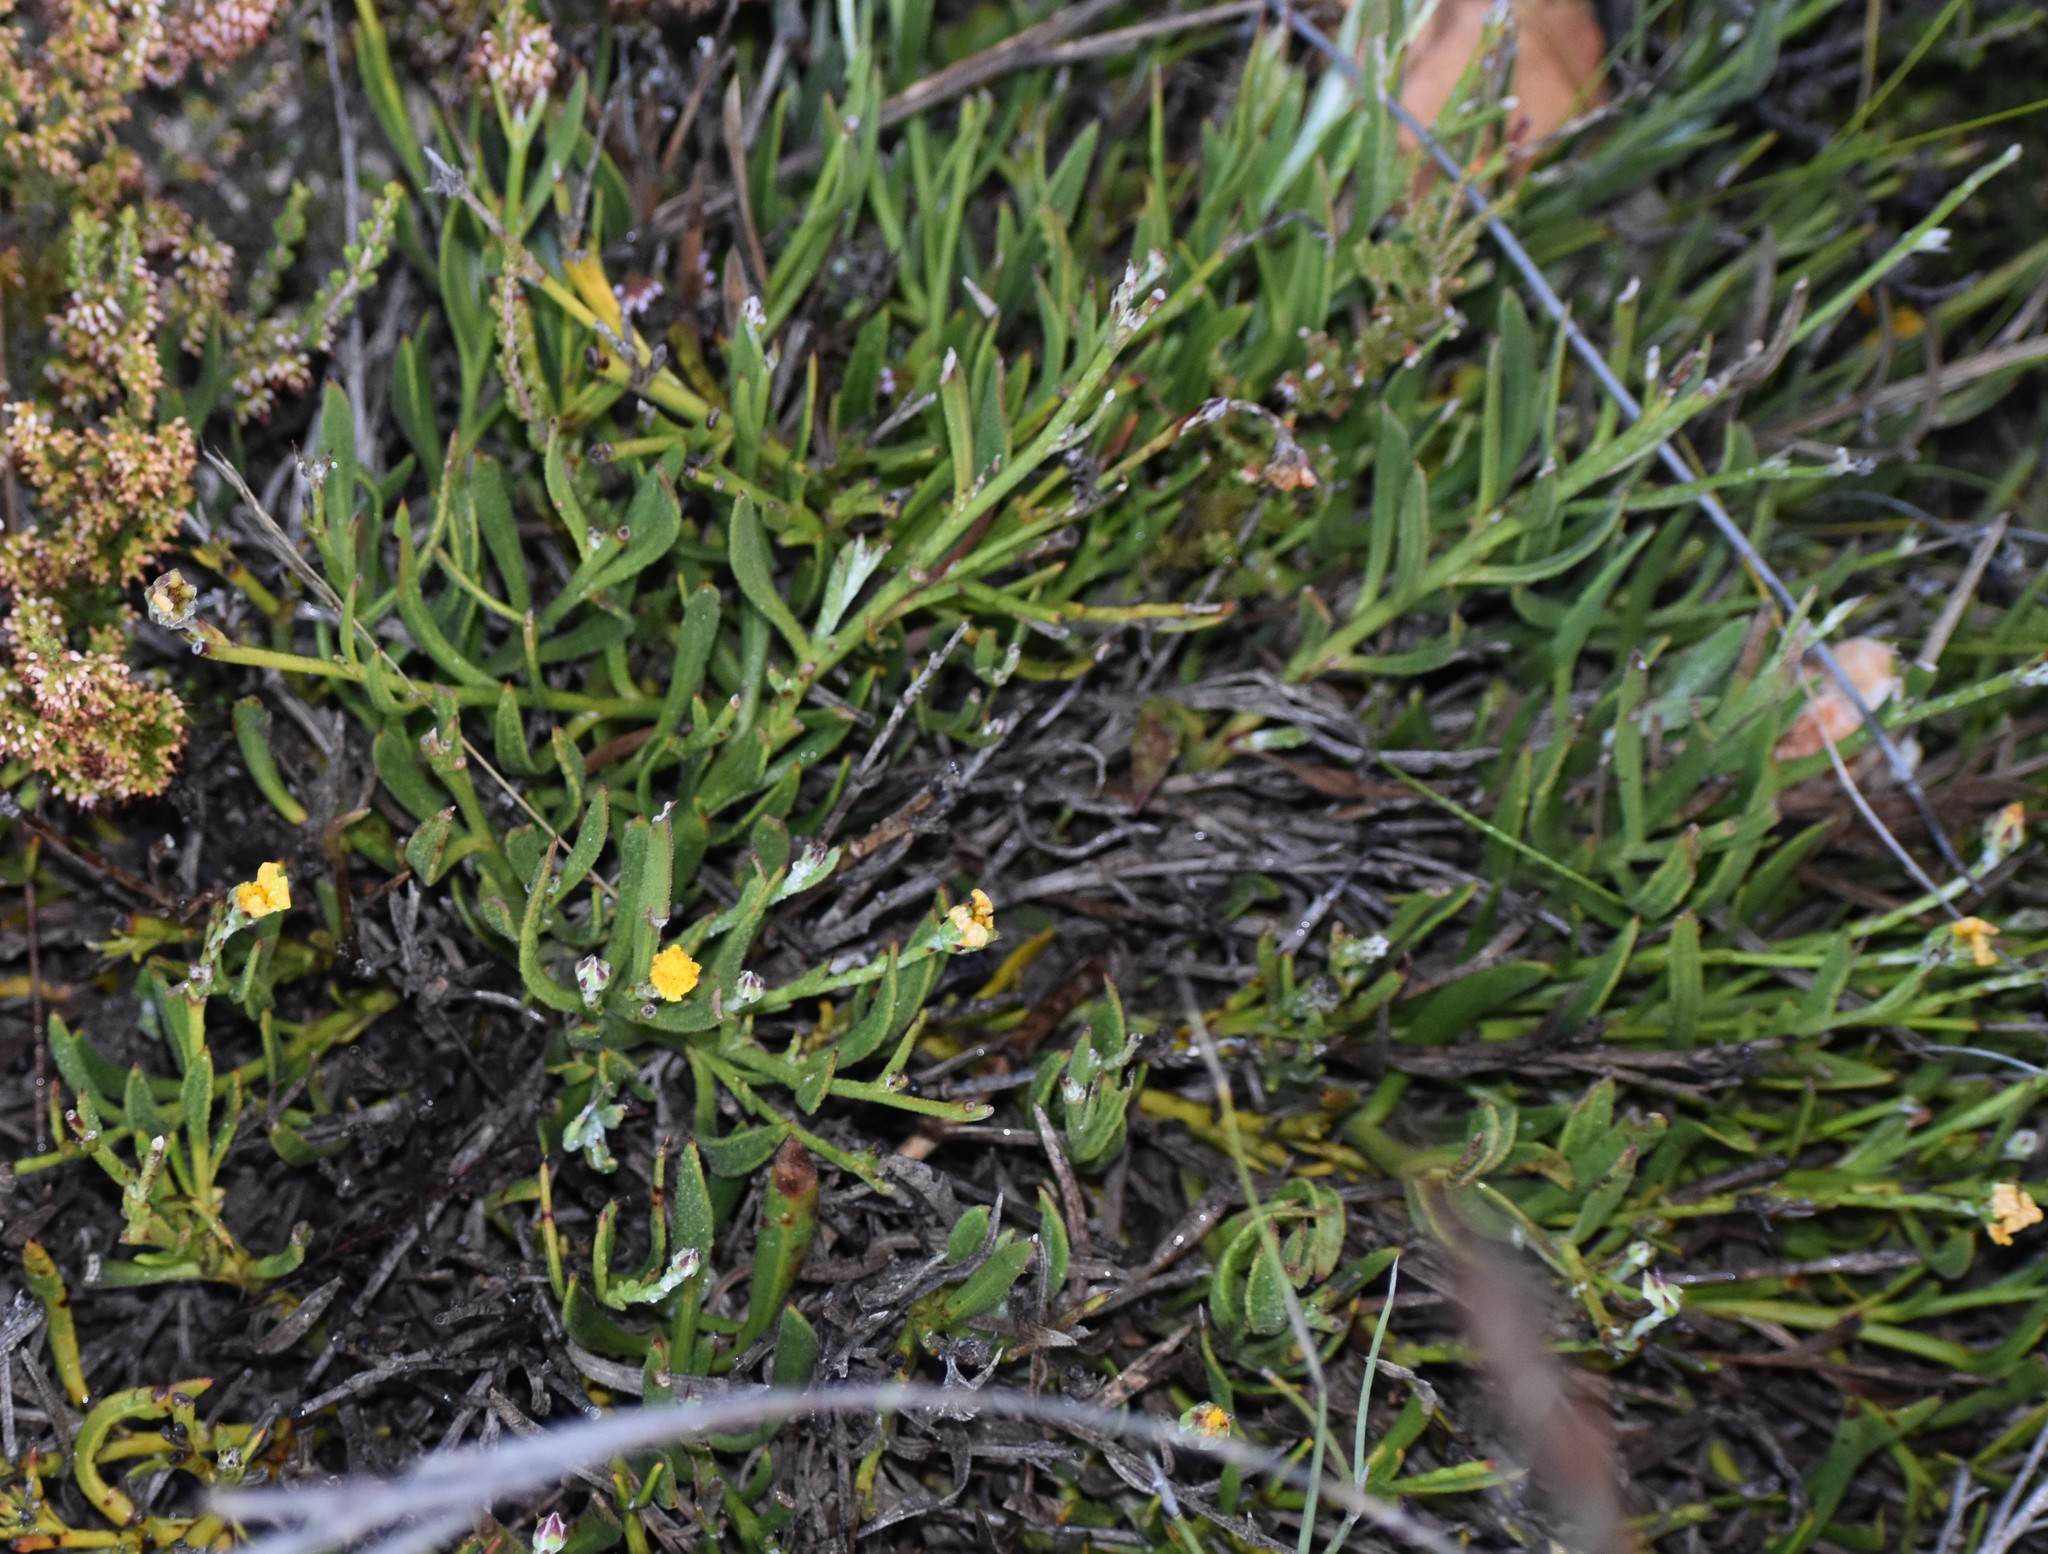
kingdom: Plantae
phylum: Tracheophyta
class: Magnoliopsida
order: Asterales
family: Asteraceae
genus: Osteospermum
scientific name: Osteospermum asperulum
